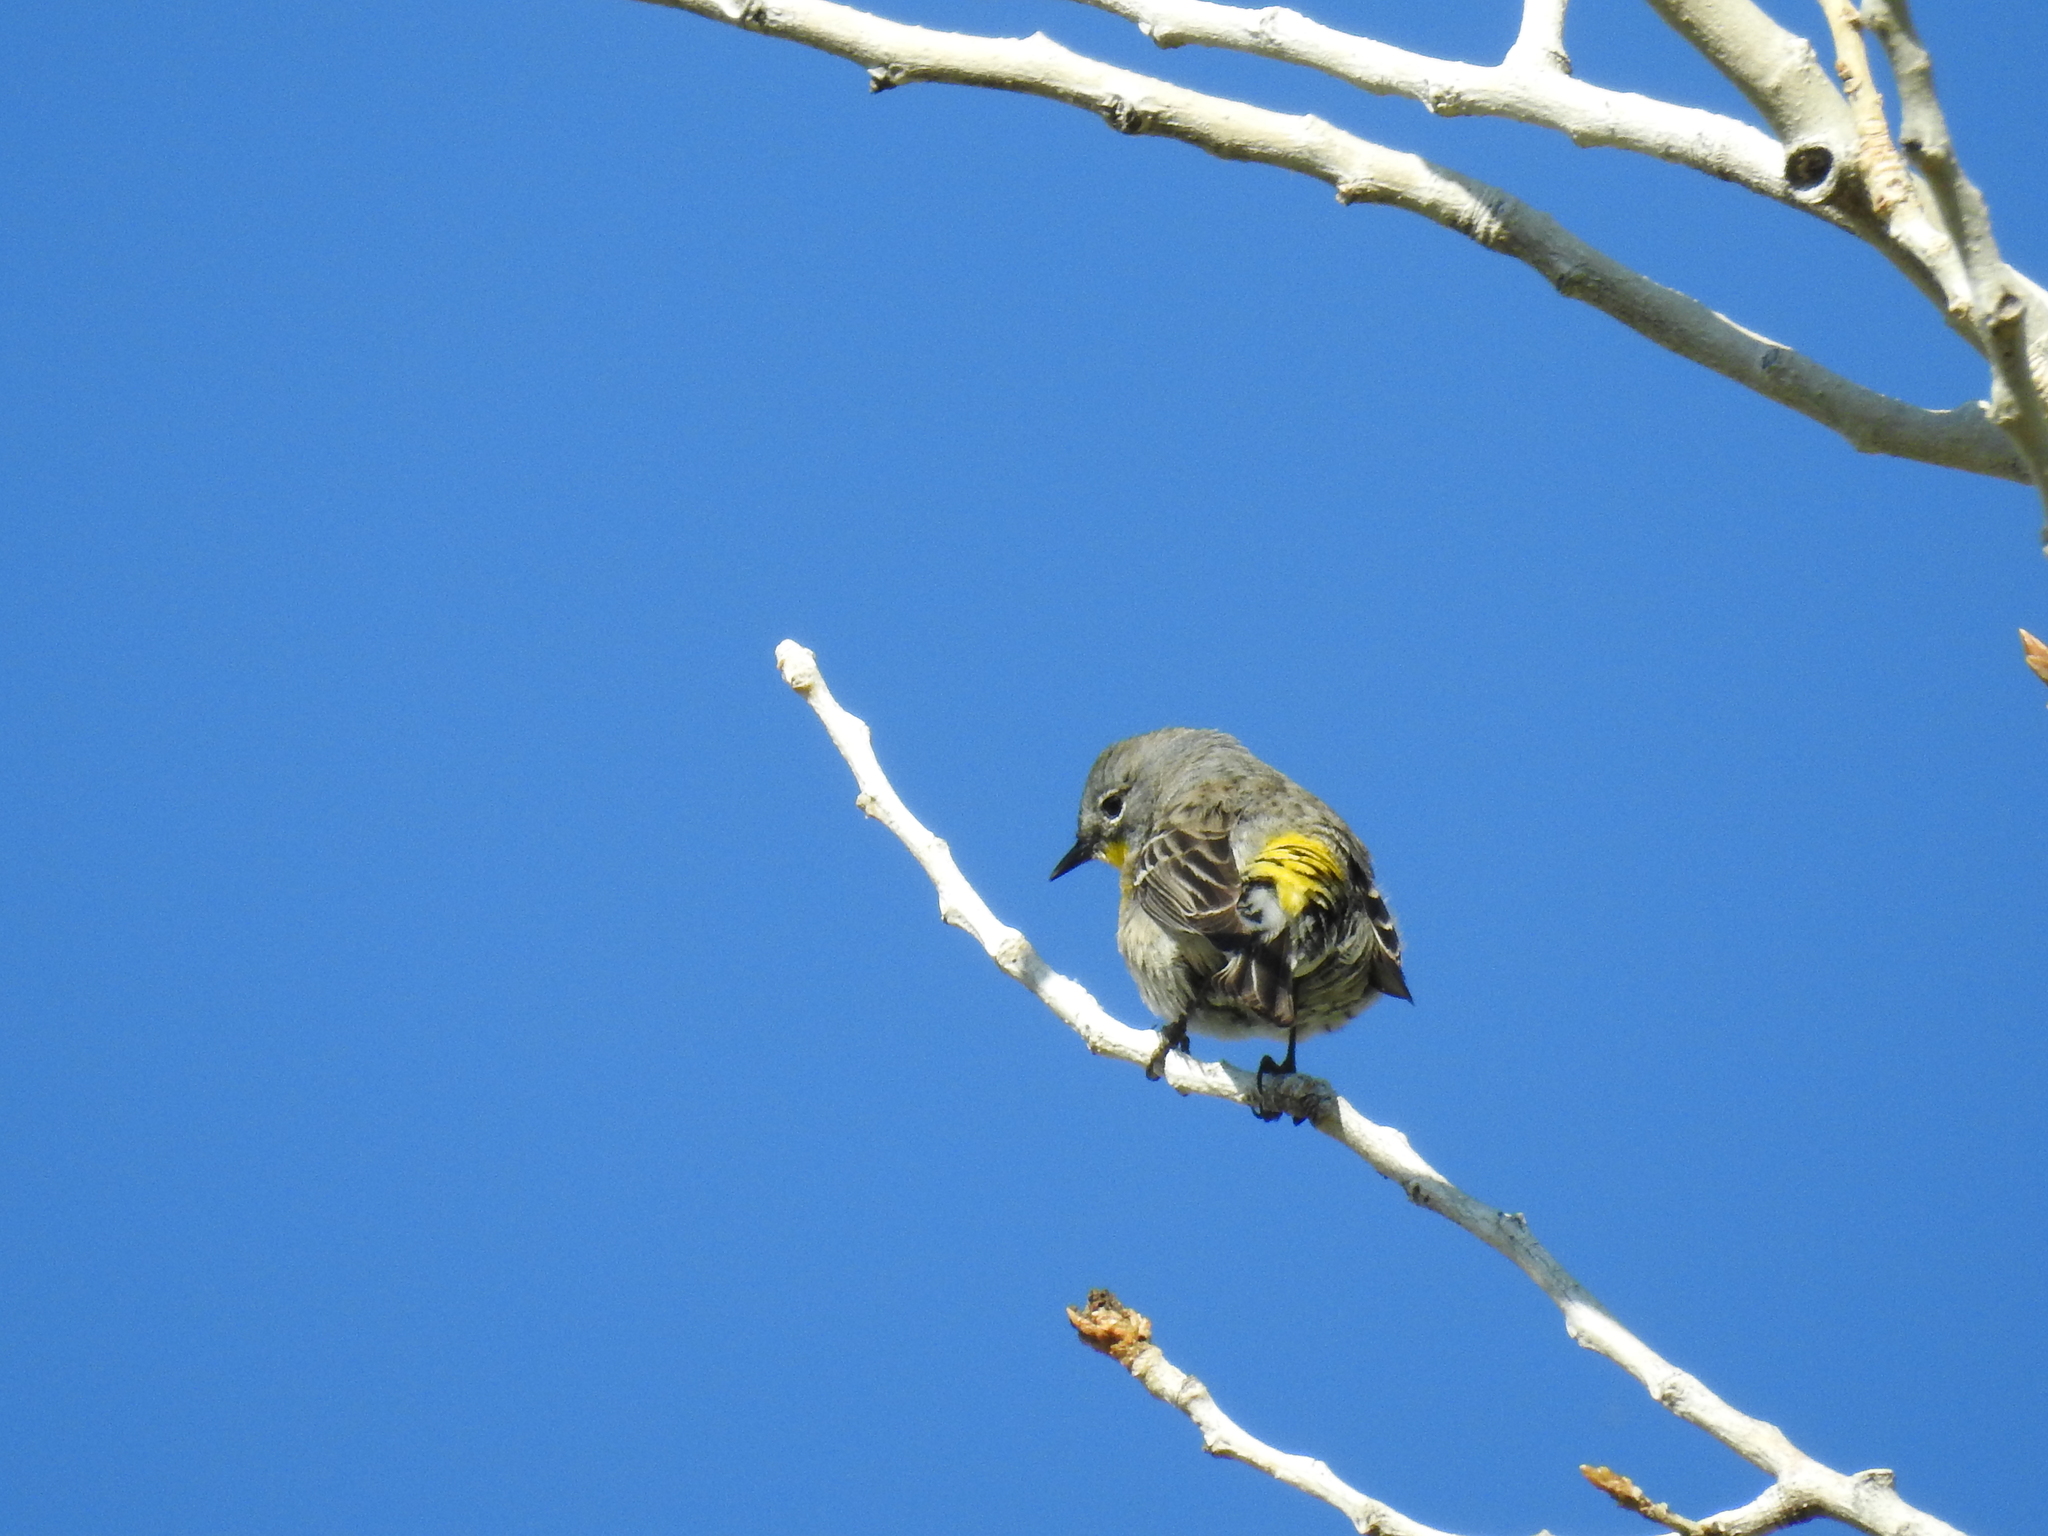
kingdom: Animalia
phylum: Chordata
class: Aves
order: Passeriformes
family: Parulidae
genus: Setophaga
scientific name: Setophaga coronata
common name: Myrtle warbler
